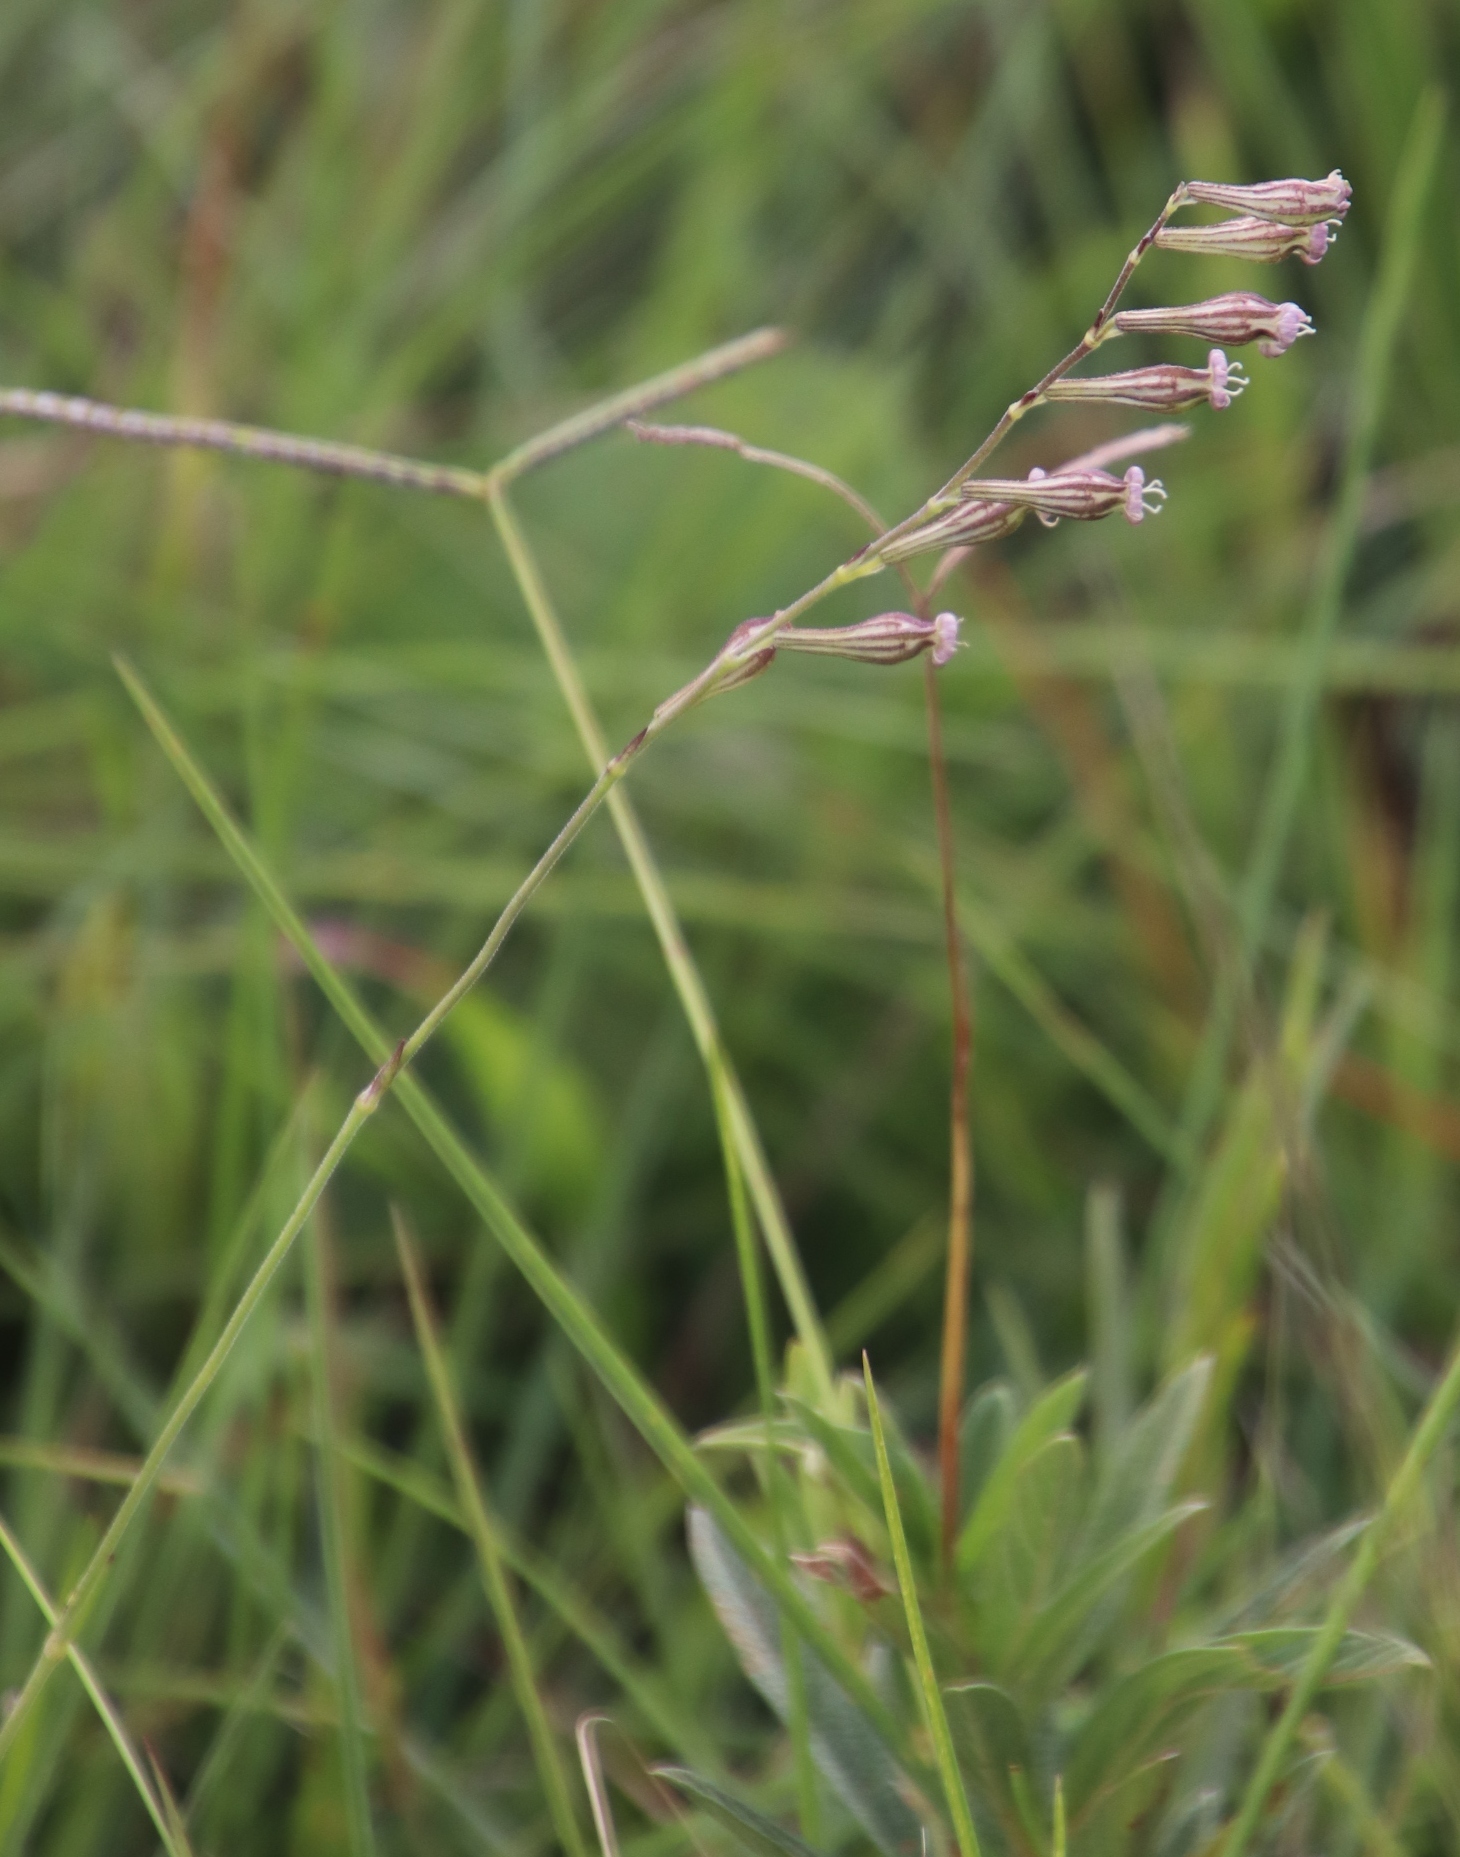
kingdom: Plantae
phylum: Tracheophyta
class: Magnoliopsida
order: Caryophyllales
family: Caryophyllaceae
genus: Silene
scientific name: Silene burchellii
